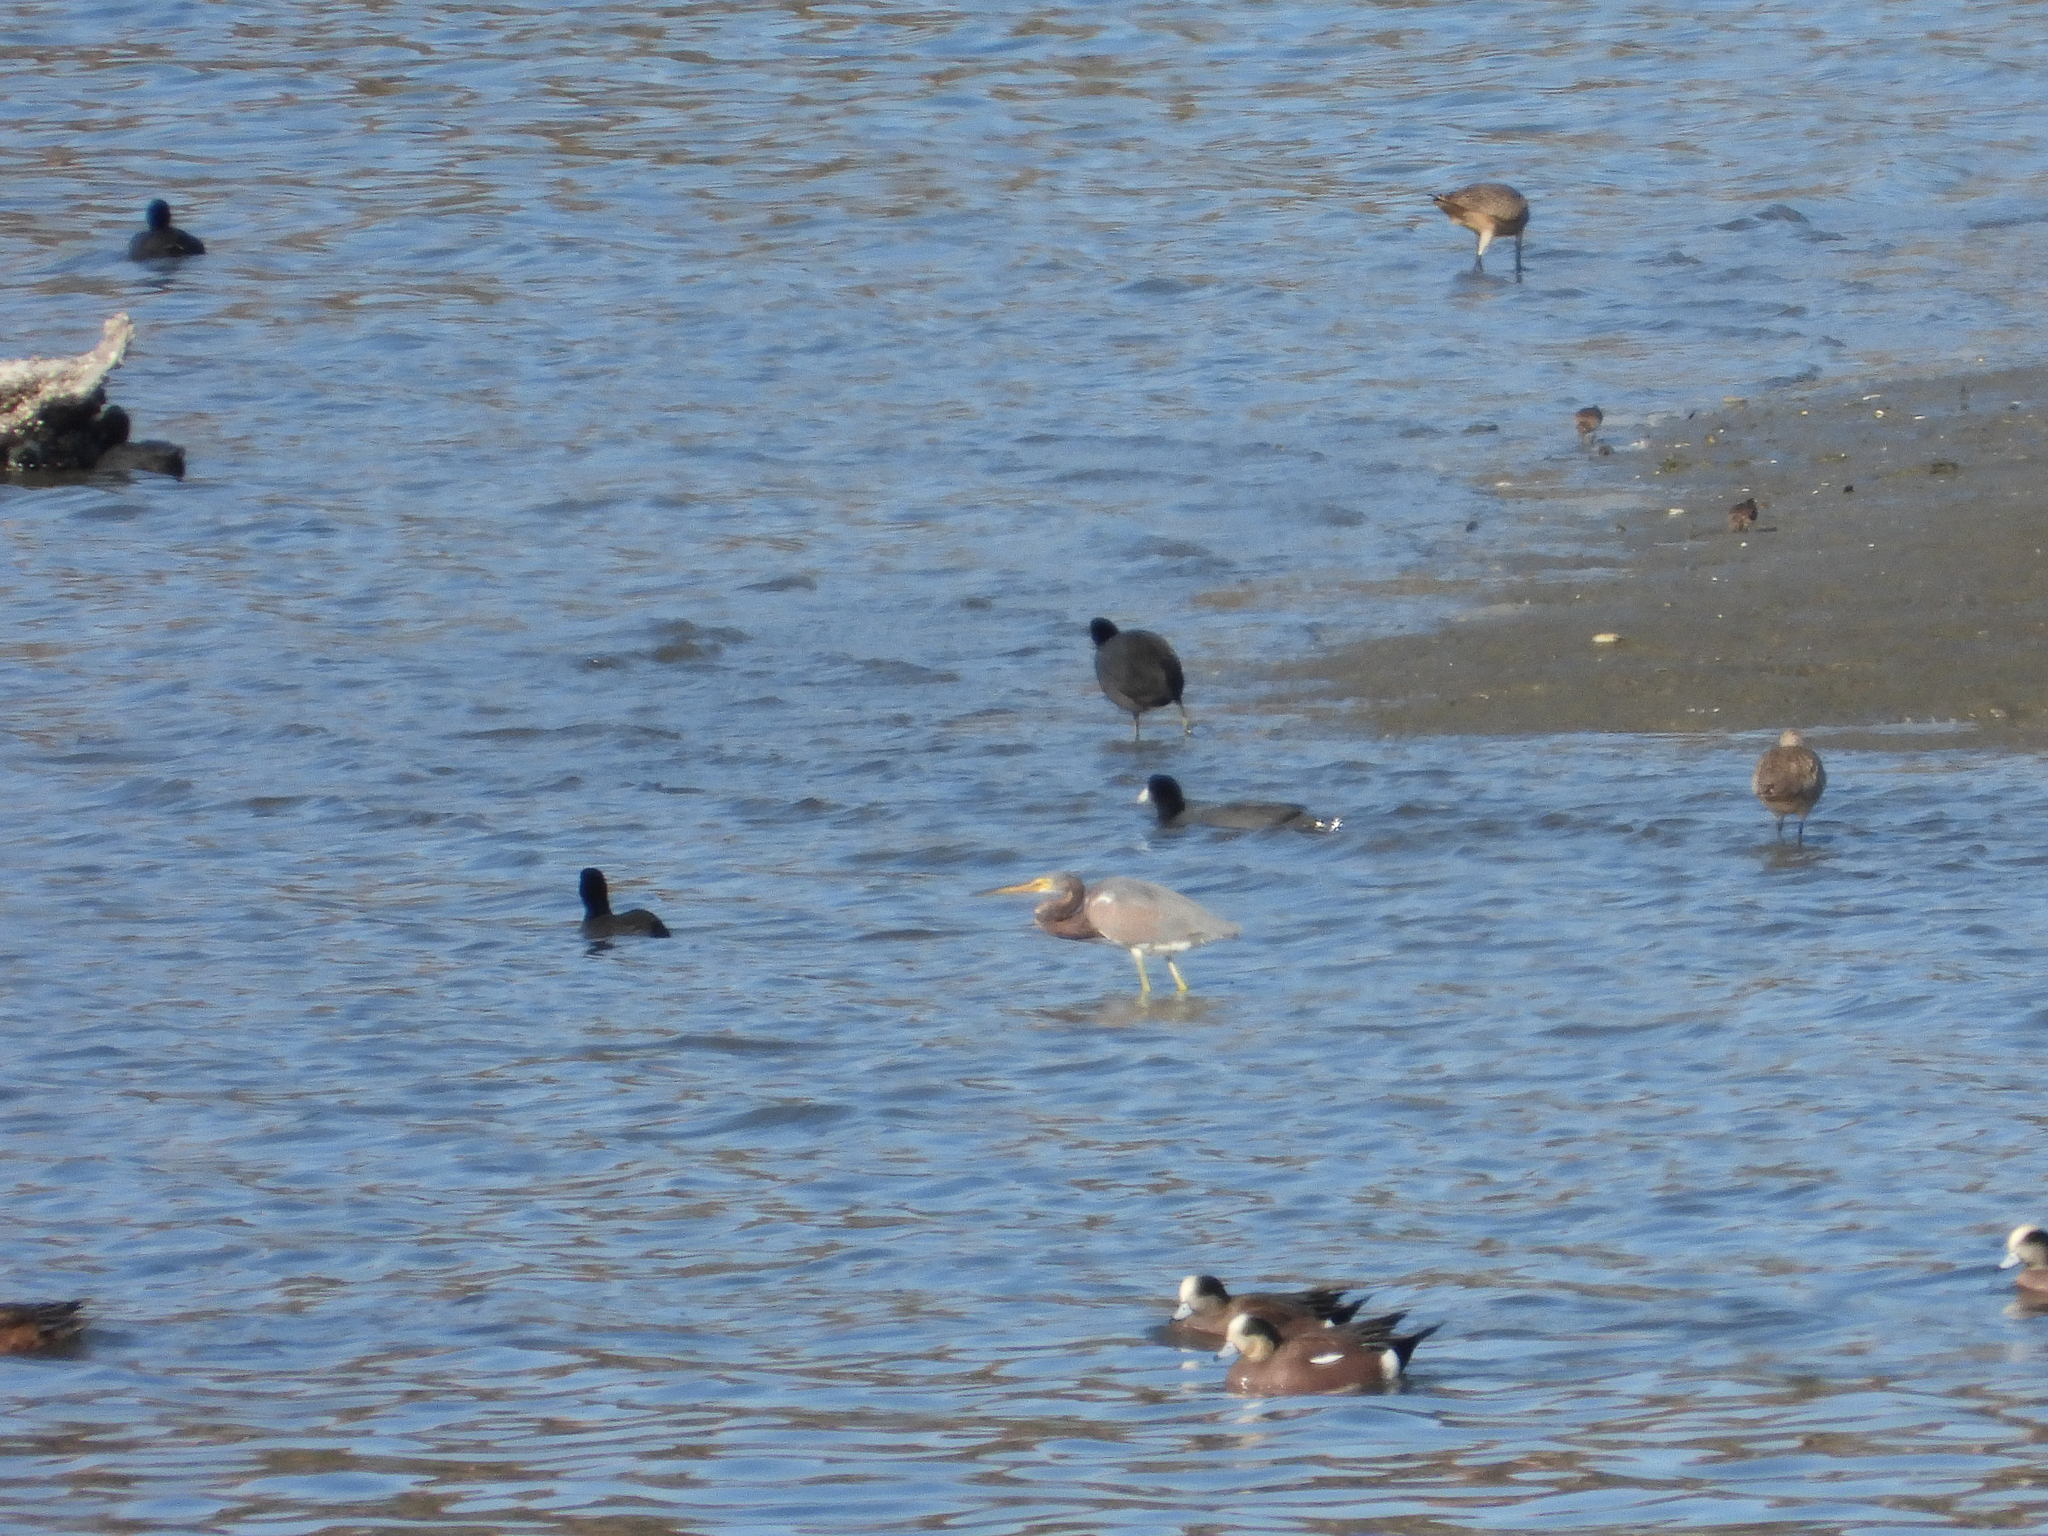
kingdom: Animalia
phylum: Chordata
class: Aves
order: Pelecaniformes
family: Ardeidae
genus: Egretta
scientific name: Egretta tricolor
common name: Tricolored heron
